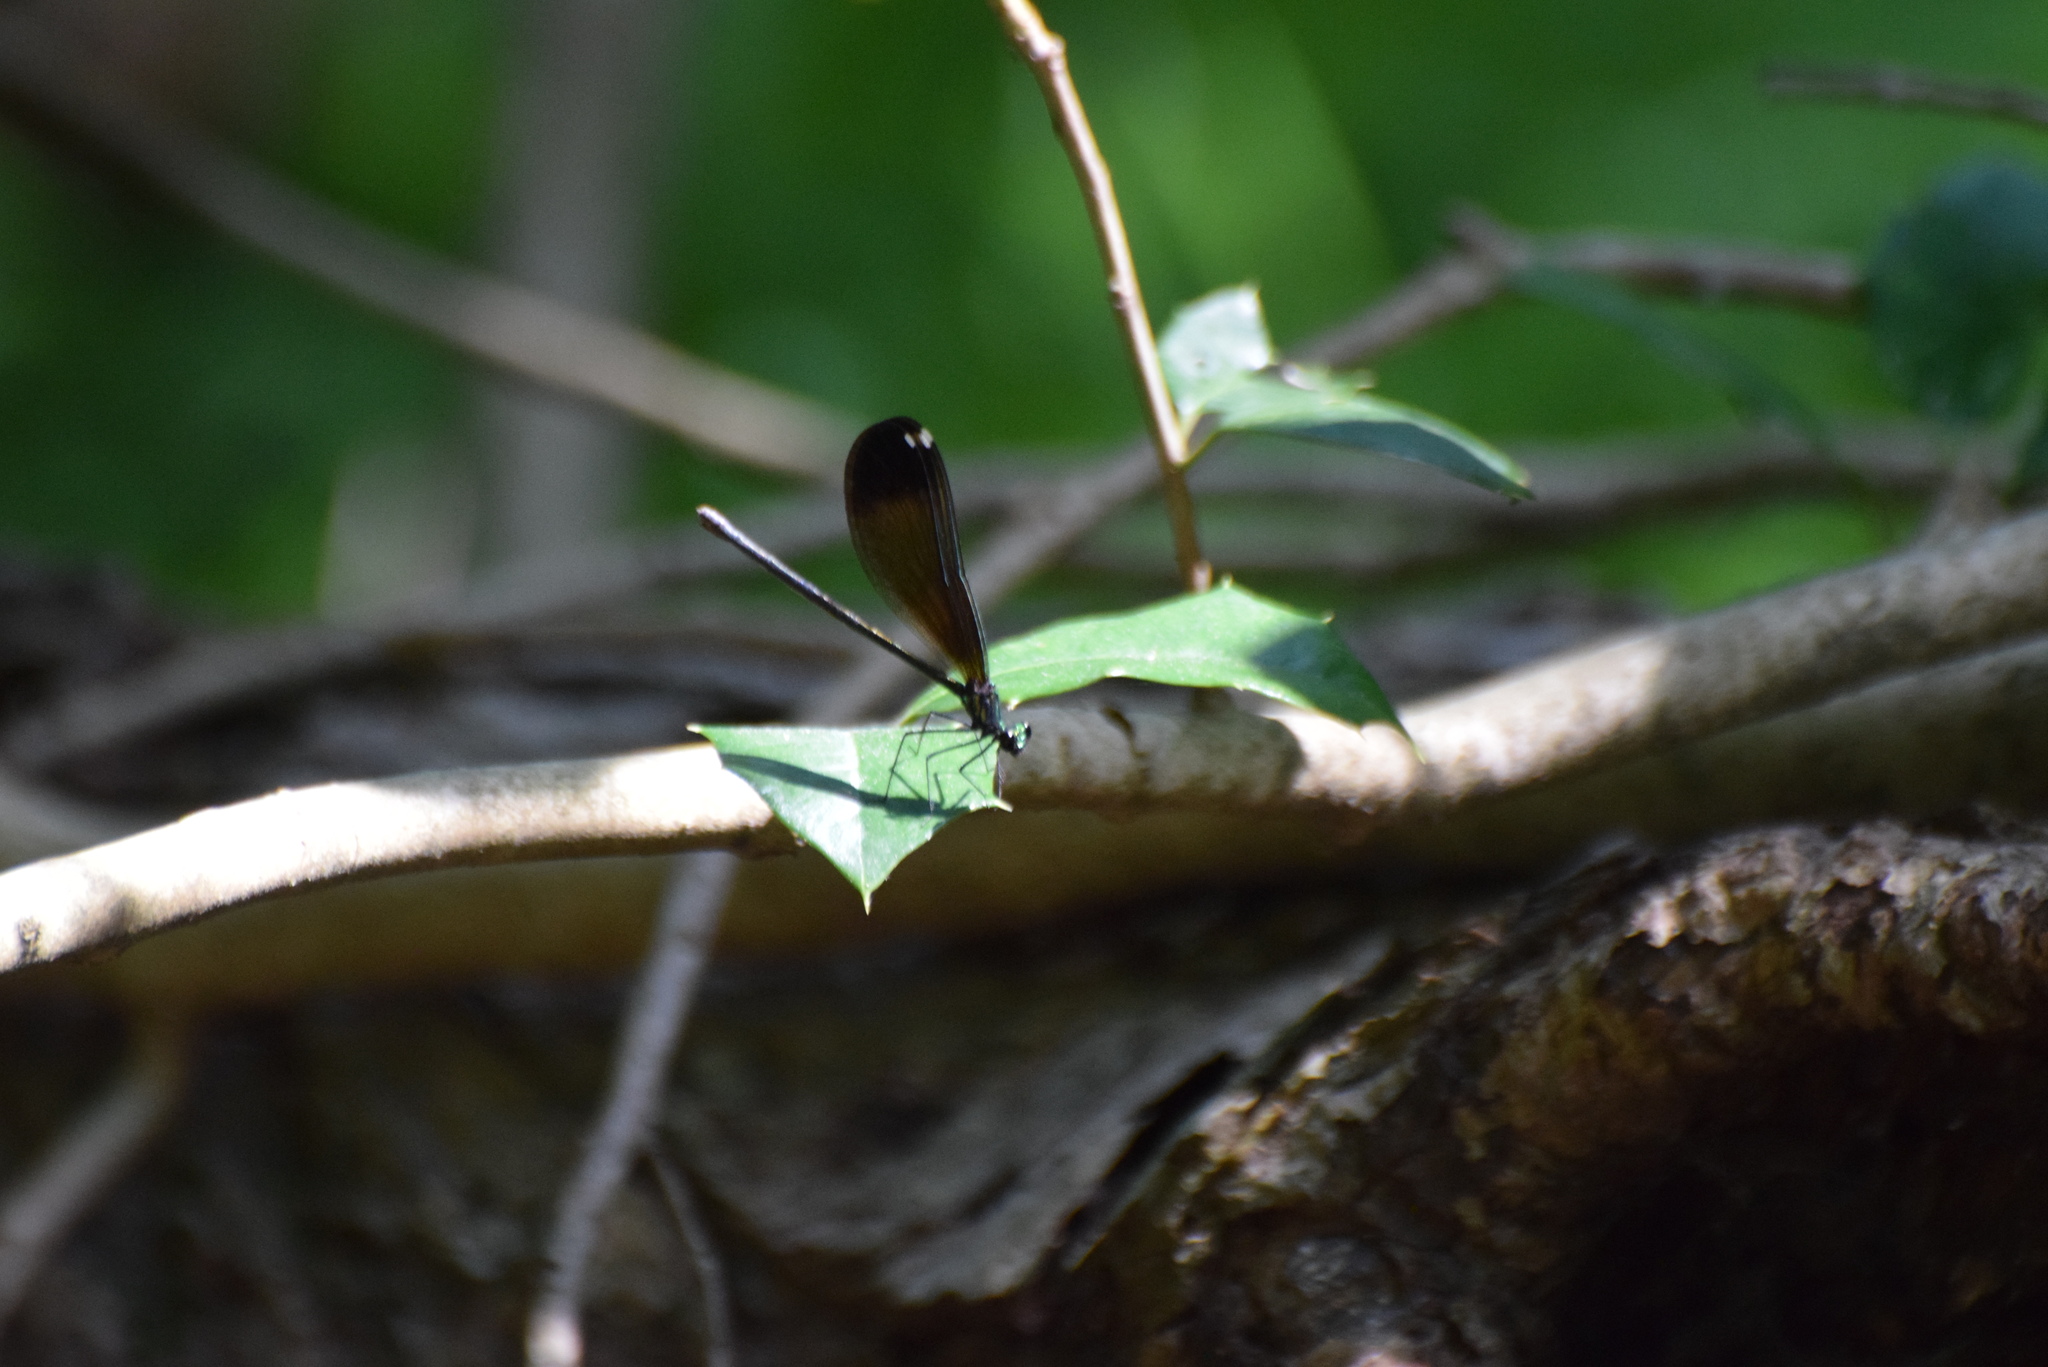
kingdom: Animalia
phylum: Arthropoda
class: Insecta
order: Odonata
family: Calopterygidae
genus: Calopteryx
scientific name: Calopteryx maculata
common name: Ebony jewelwing
